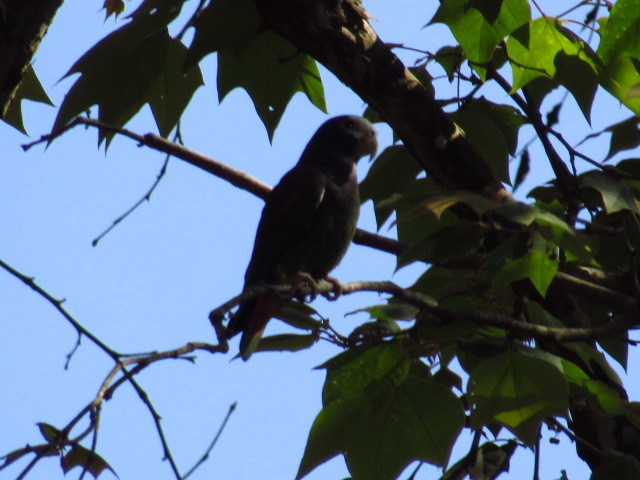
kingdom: Animalia
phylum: Chordata
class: Aves
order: Psittaciformes
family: Psittacidae
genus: Pionus
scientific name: Pionus senilis
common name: White-crowned parrot
